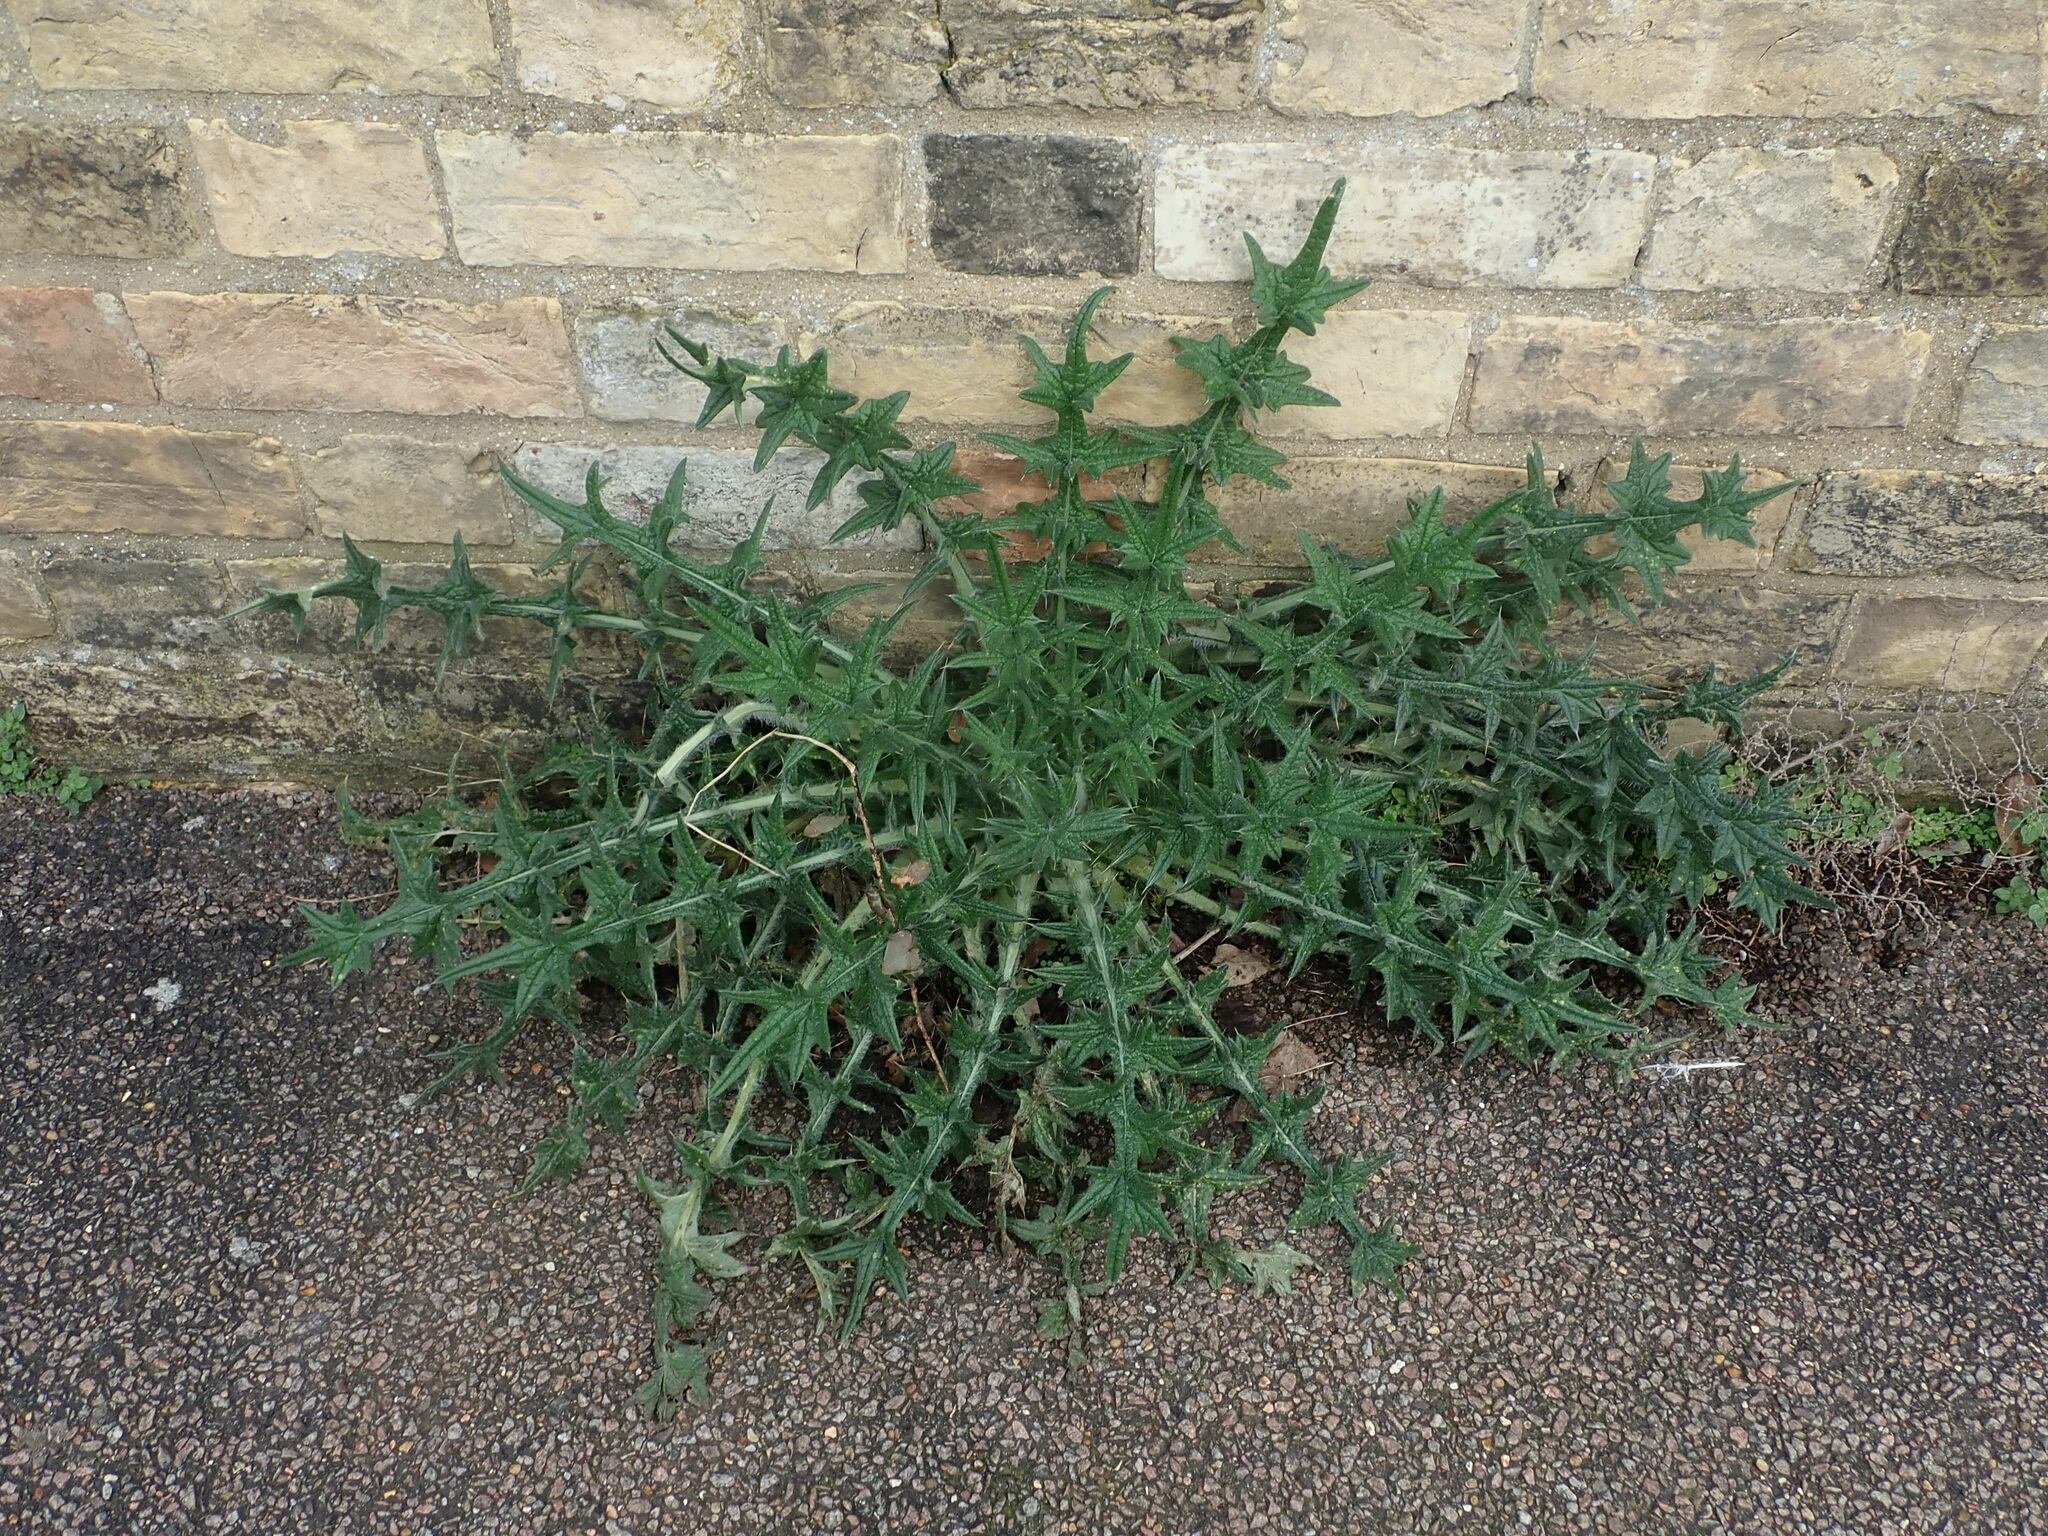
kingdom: Plantae
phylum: Tracheophyta
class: Magnoliopsida
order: Asterales
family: Asteraceae
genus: Cirsium
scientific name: Cirsium vulgare
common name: Bull thistle
